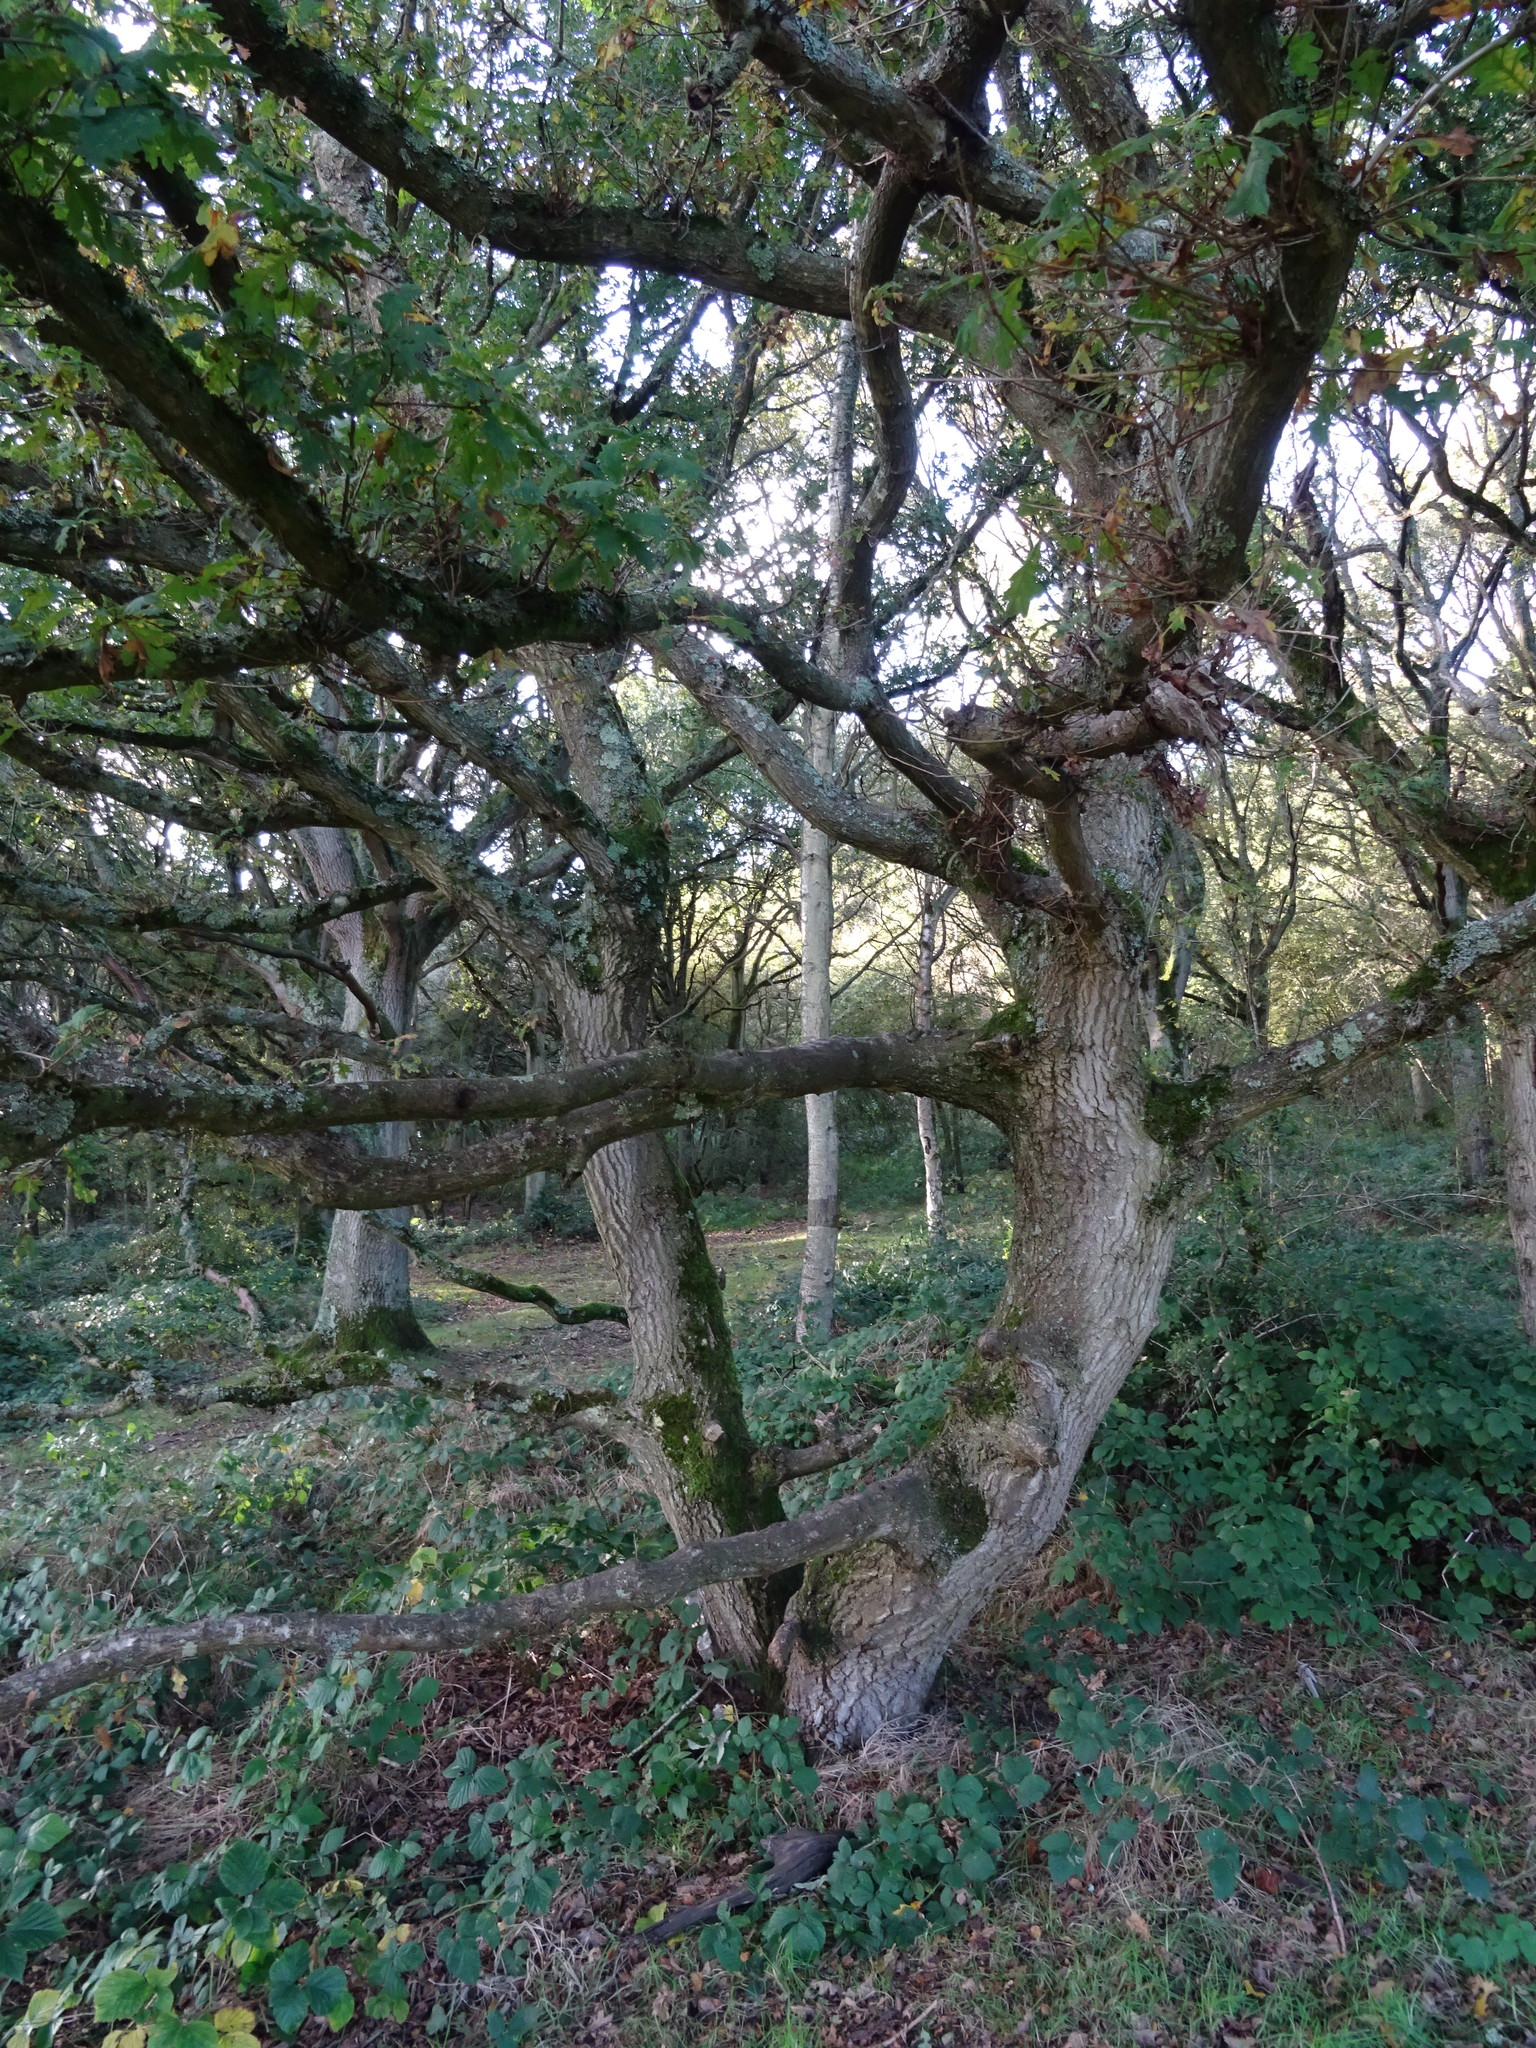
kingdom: Plantae
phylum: Tracheophyta
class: Magnoliopsida
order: Fagales
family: Fagaceae
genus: Quercus
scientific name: Quercus robur
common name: Pedunculate oak
